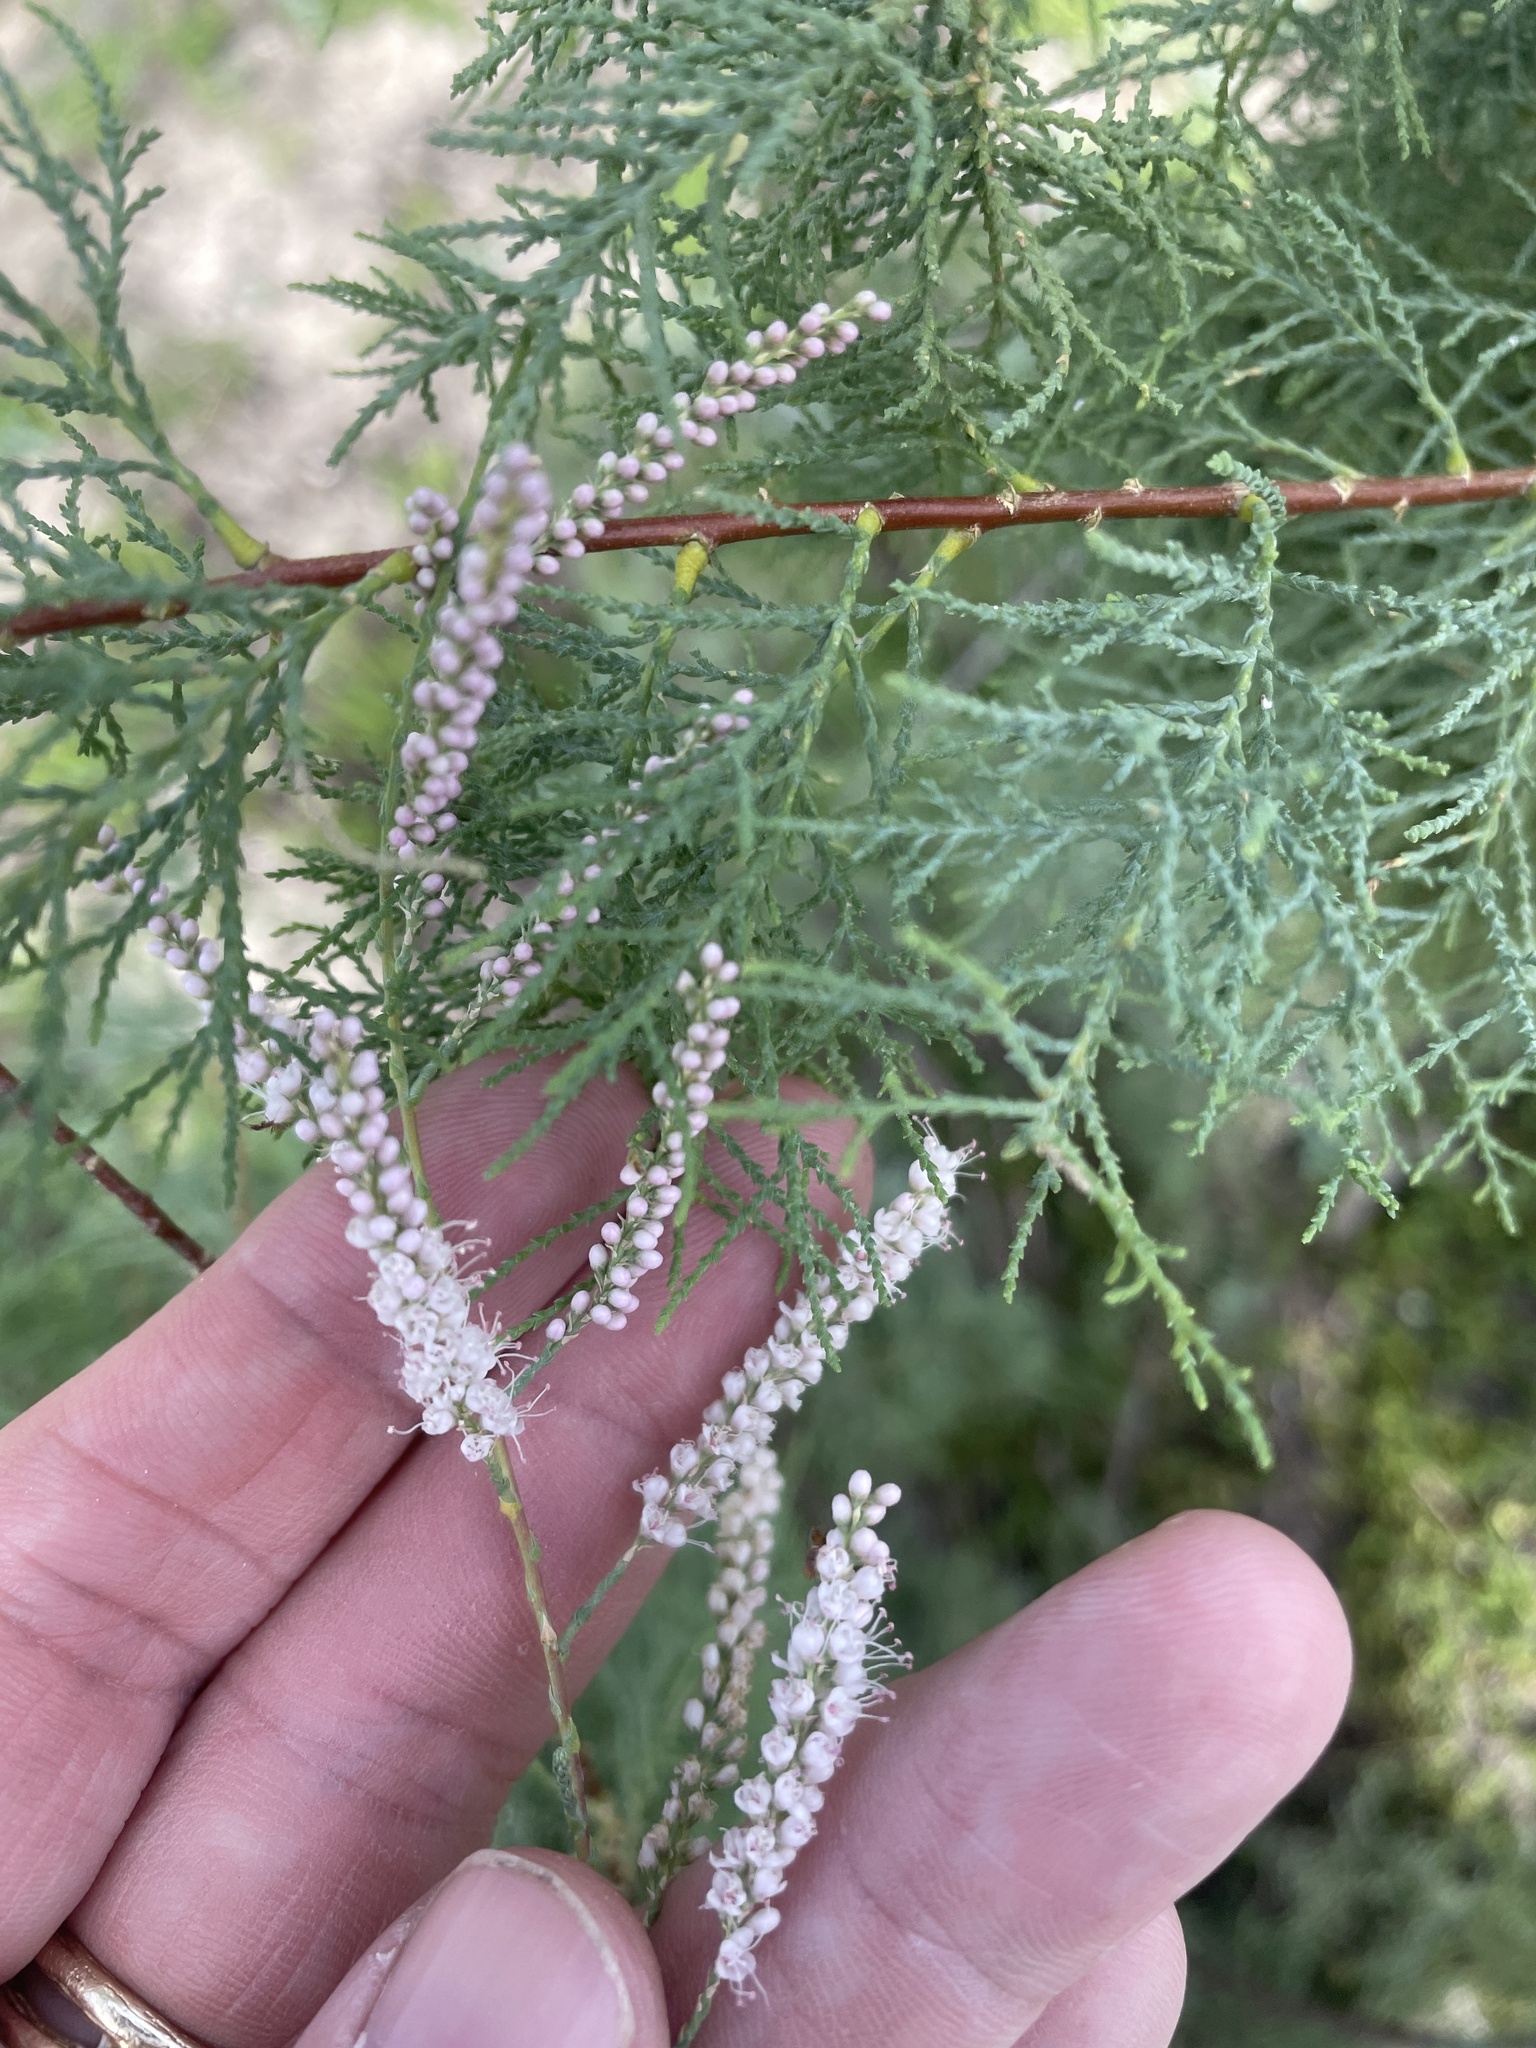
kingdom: Plantae
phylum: Tracheophyta
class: Magnoliopsida
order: Caryophyllales
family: Tamaricaceae
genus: Tamarix
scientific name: Tamarix
